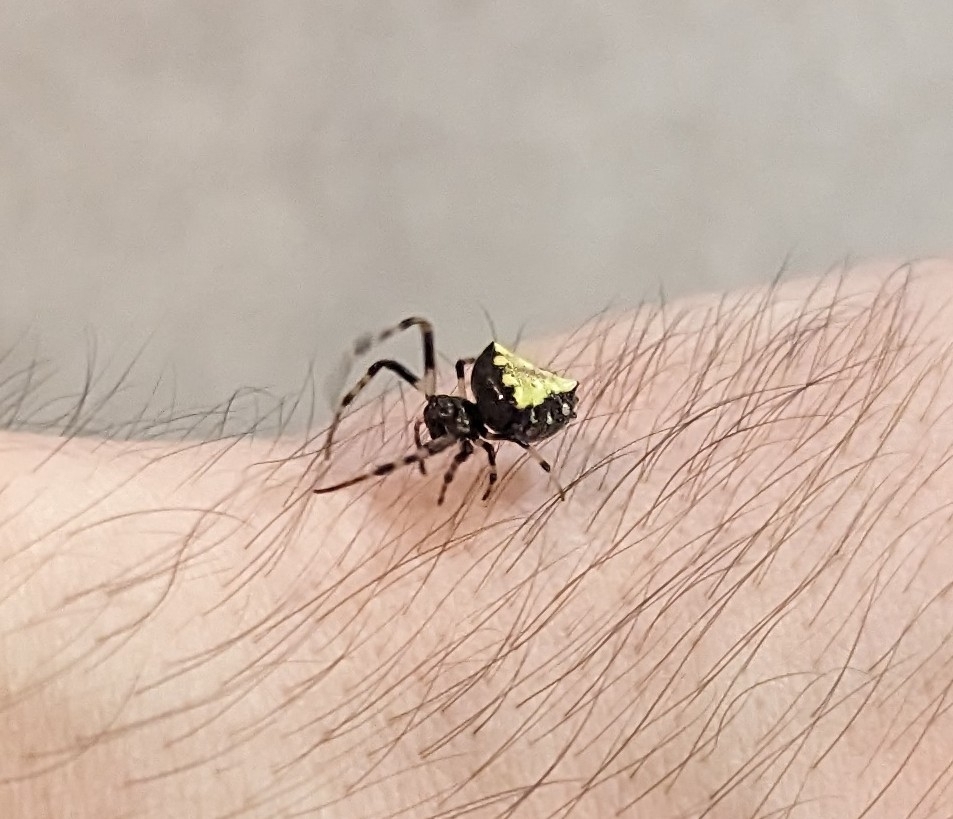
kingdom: Animalia
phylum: Arthropoda
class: Arachnida
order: Araneae
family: Araneidae
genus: Verrucosa
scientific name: Verrucosa arenata
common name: Orb weavers
